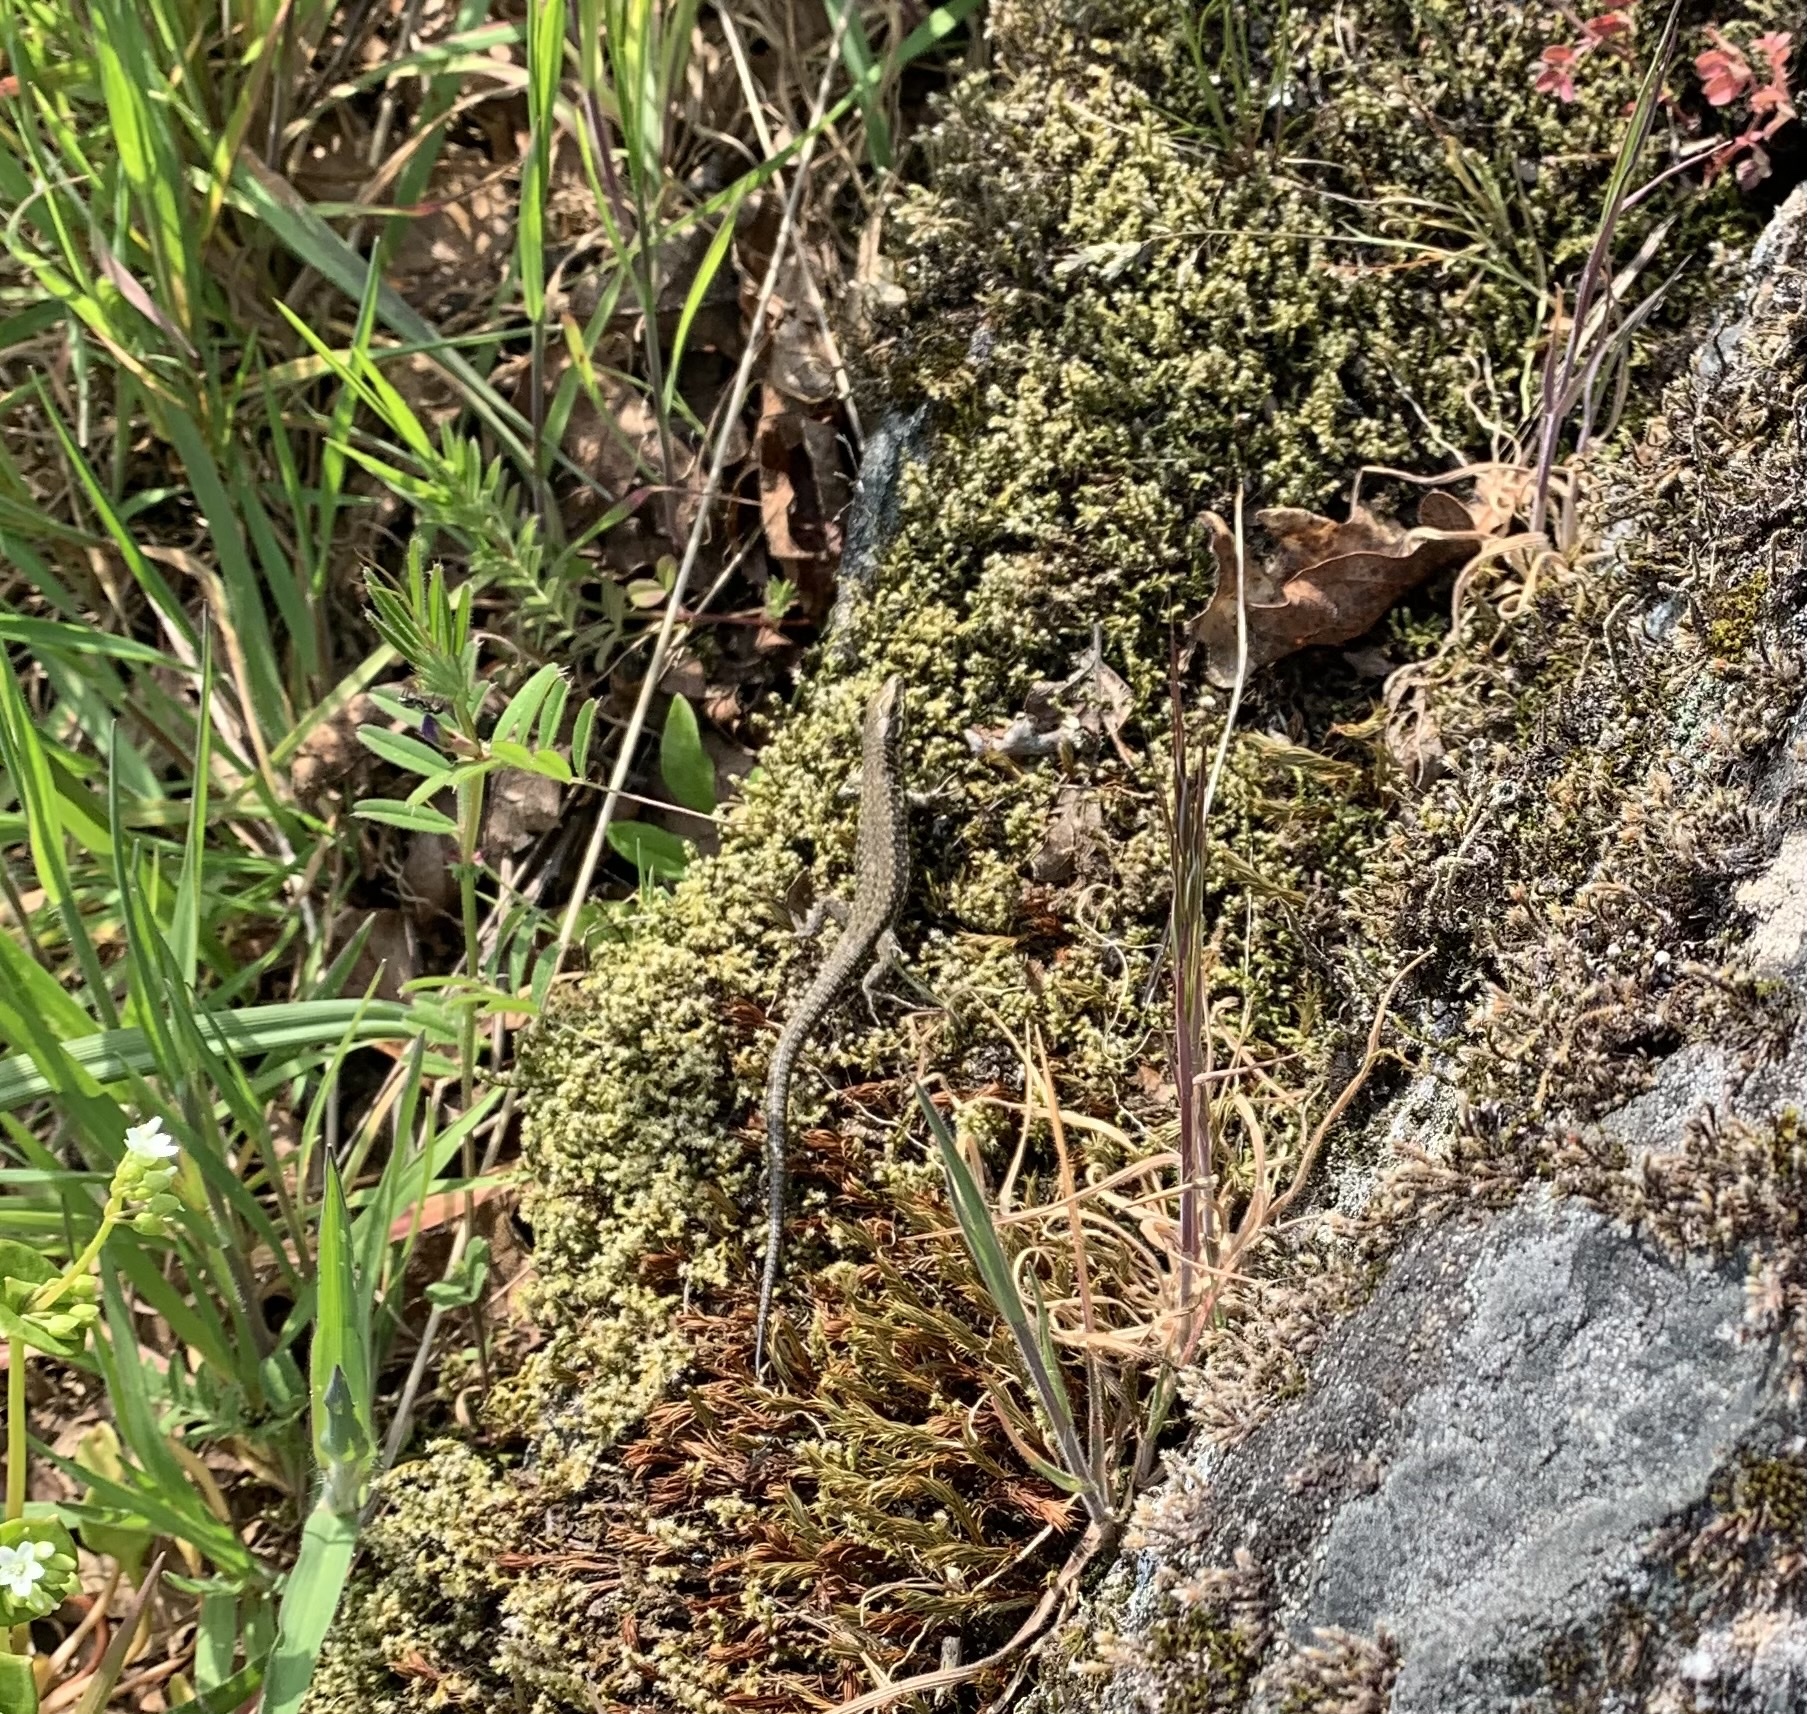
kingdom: Animalia
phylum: Chordata
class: Squamata
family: Lacertidae
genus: Podarcis
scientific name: Podarcis muralis
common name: Common wall lizard
